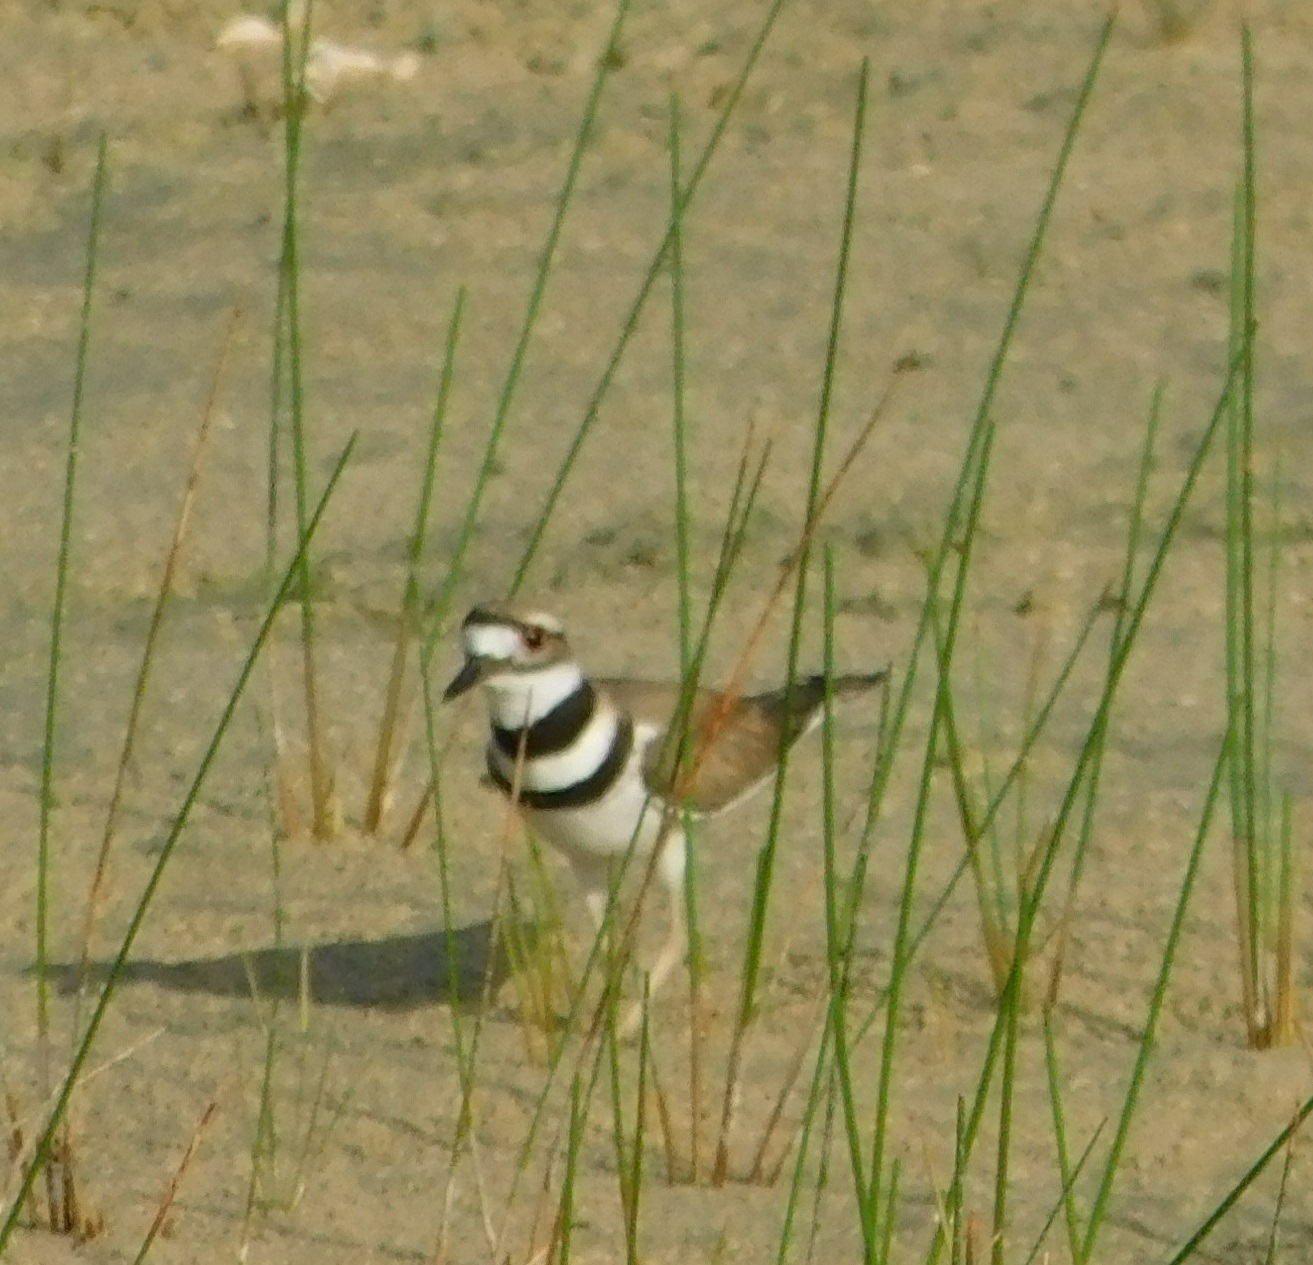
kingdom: Animalia
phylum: Chordata
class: Aves
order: Charadriiformes
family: Charadriidae
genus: Charadrius
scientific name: Charadrius vociferus
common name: Killdeer
